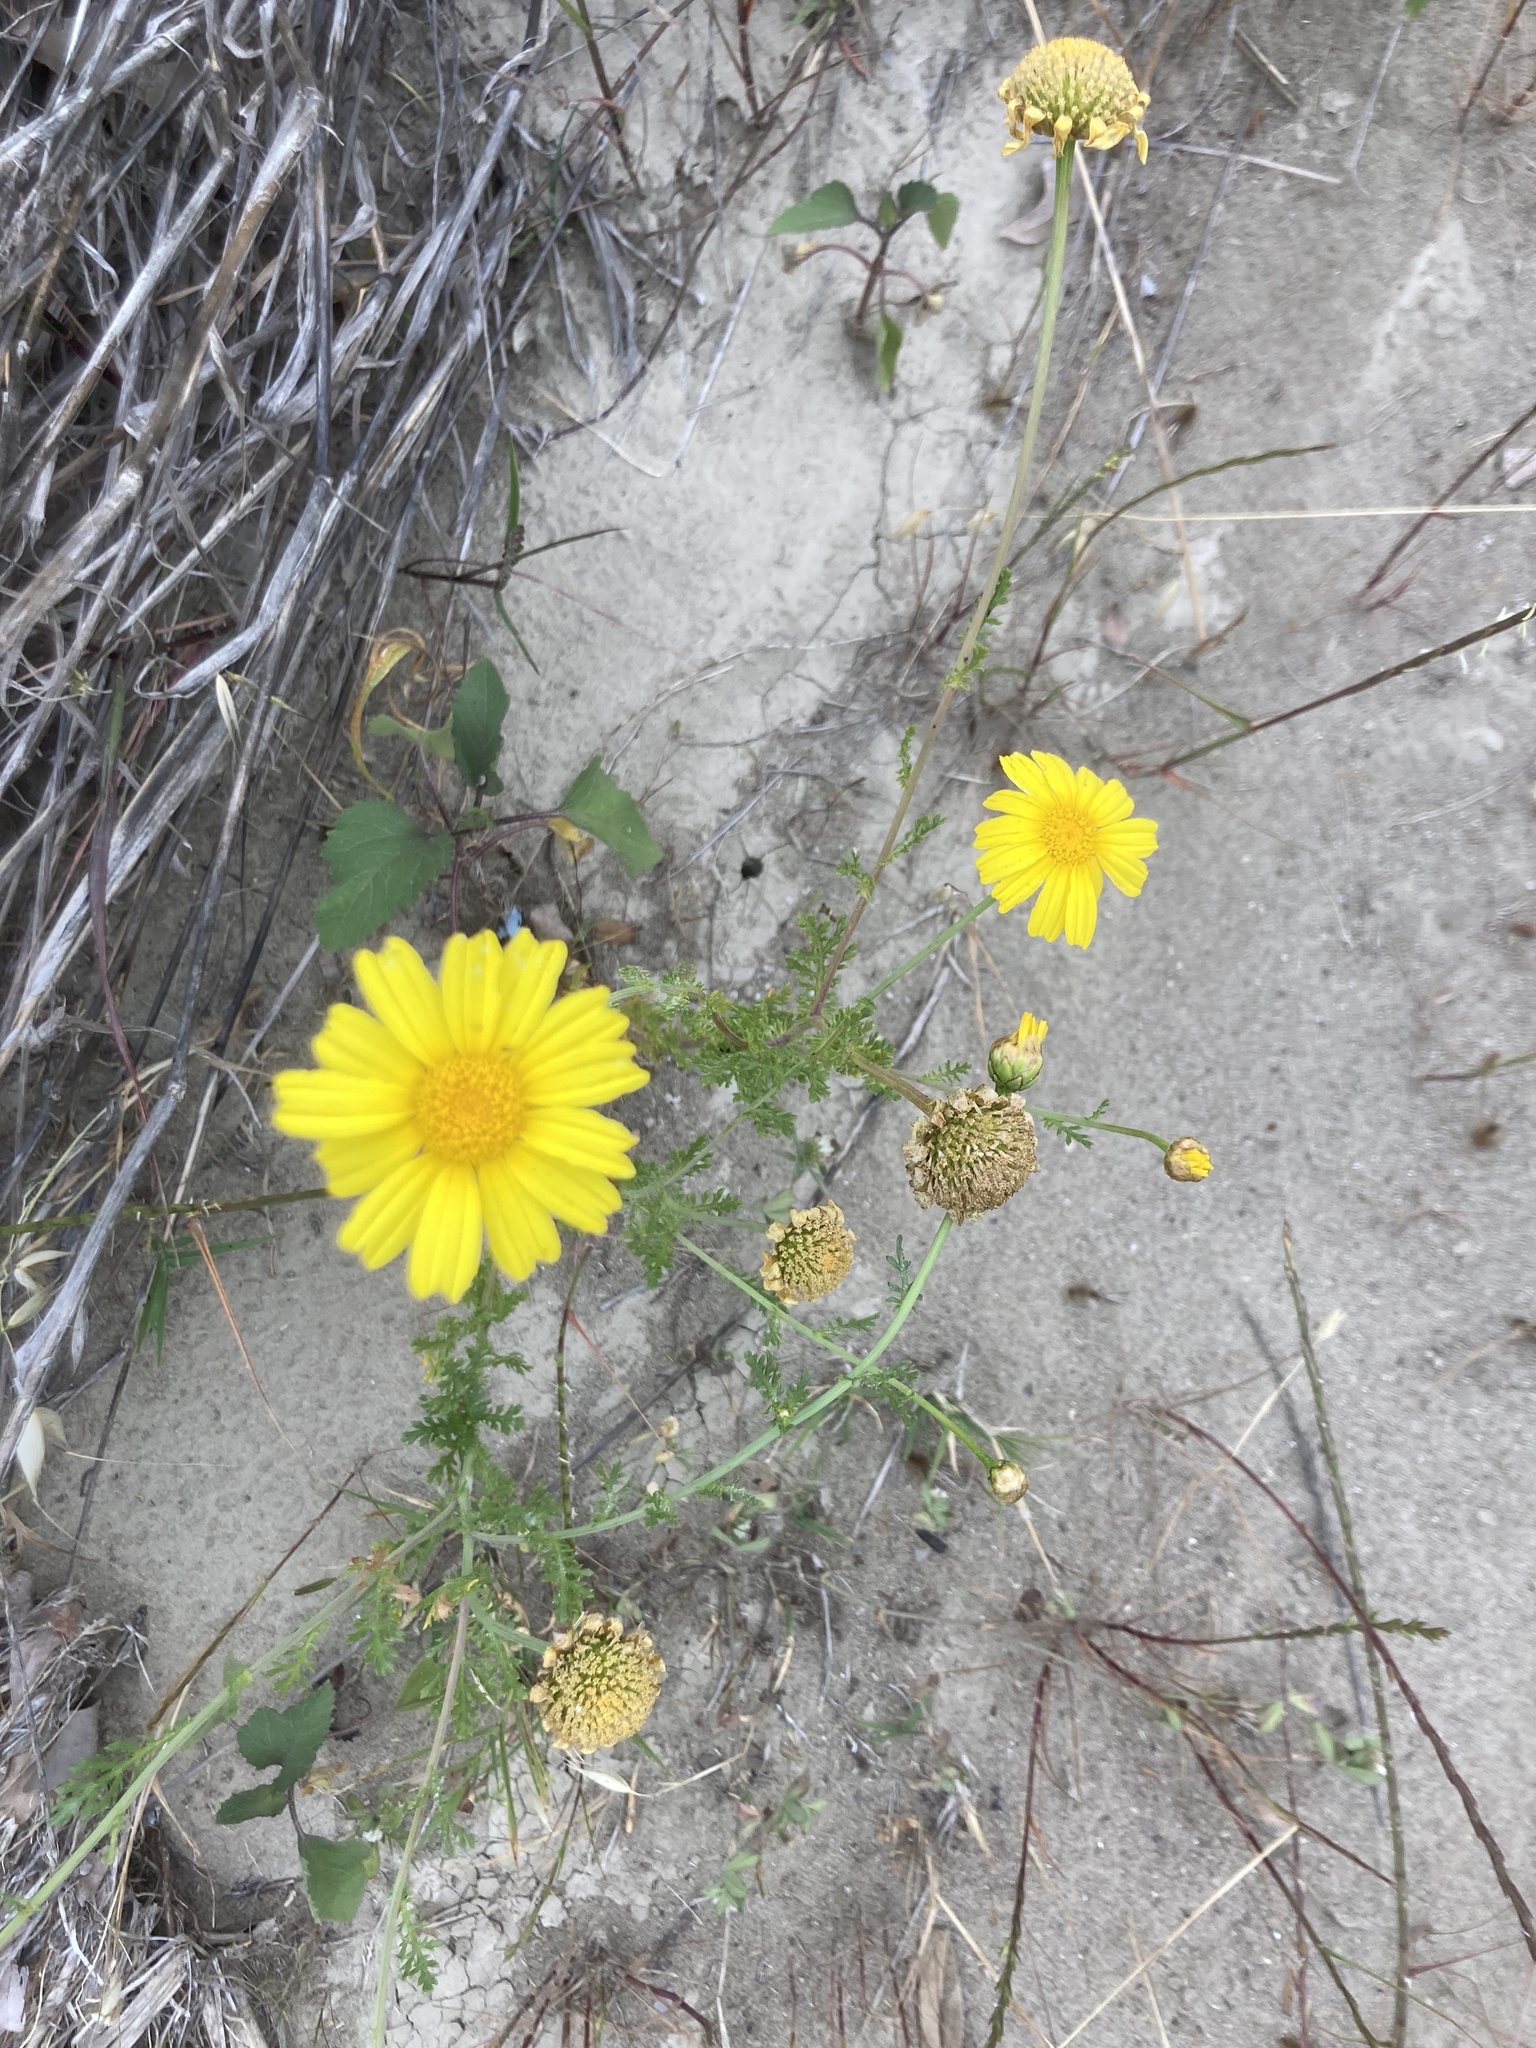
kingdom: Plantae
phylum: Tracheophyta
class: Magnoliopsida
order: Asterales
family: Asteraceae
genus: Glebionis
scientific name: Glebionis coronaria
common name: Crowndaisy
